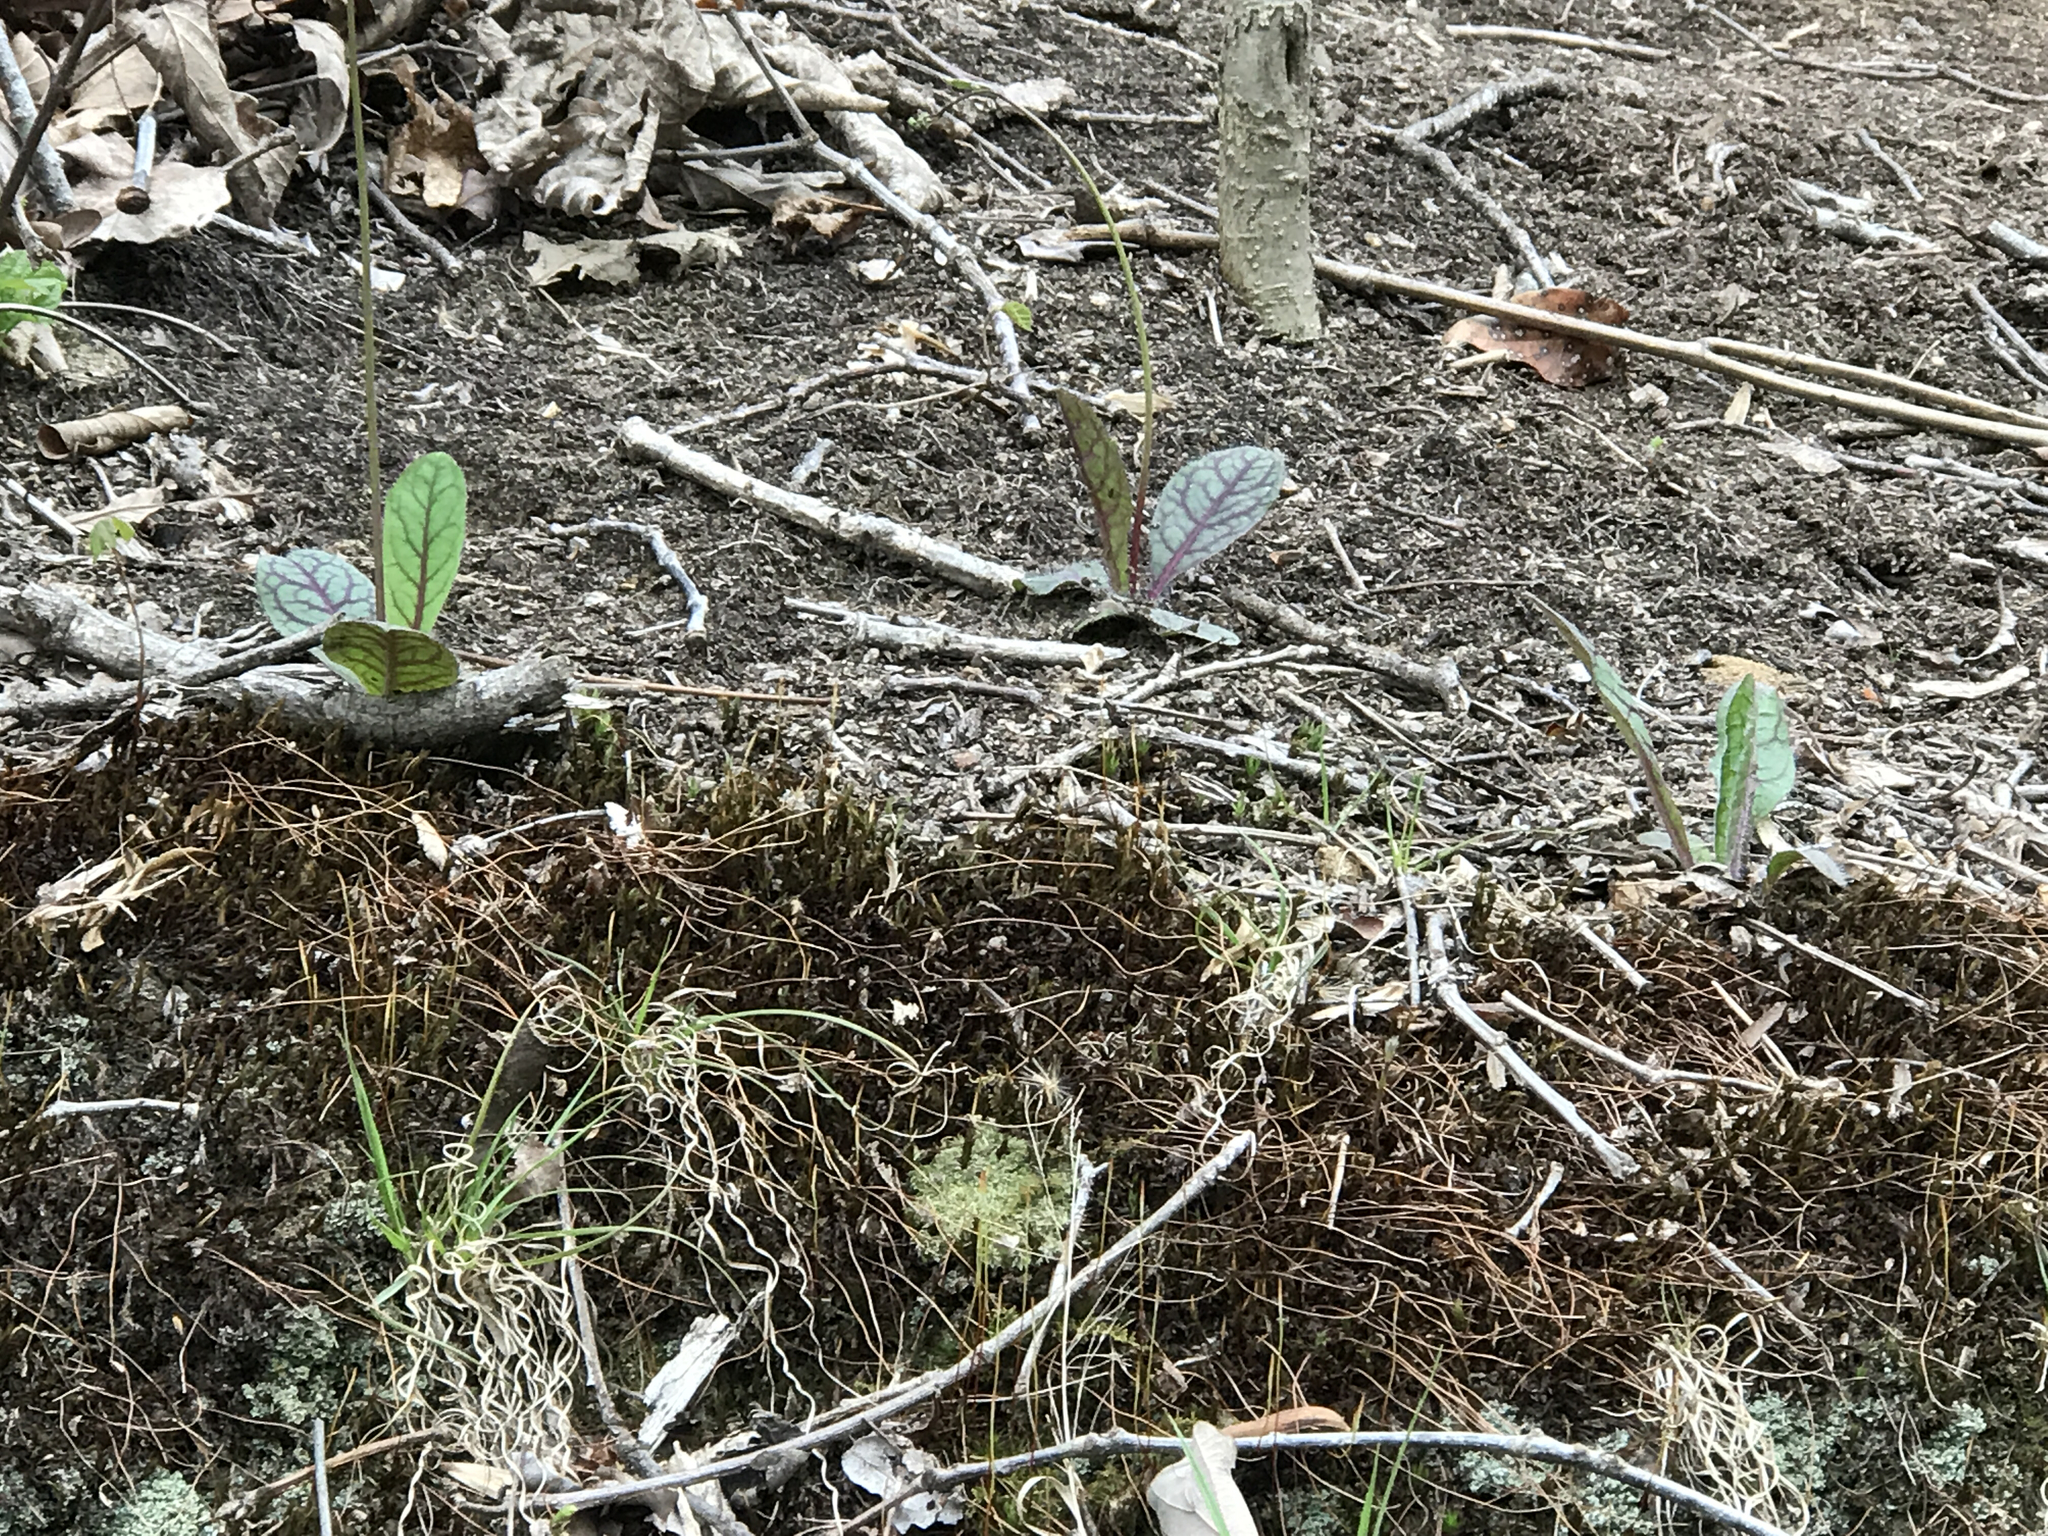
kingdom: Plantae
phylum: Tracheophyta
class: Magnoliopsida
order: Asterales
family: Asteraceae
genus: Hieracium
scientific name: Hieracium venosum
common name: Rattlesnake hawkweed
